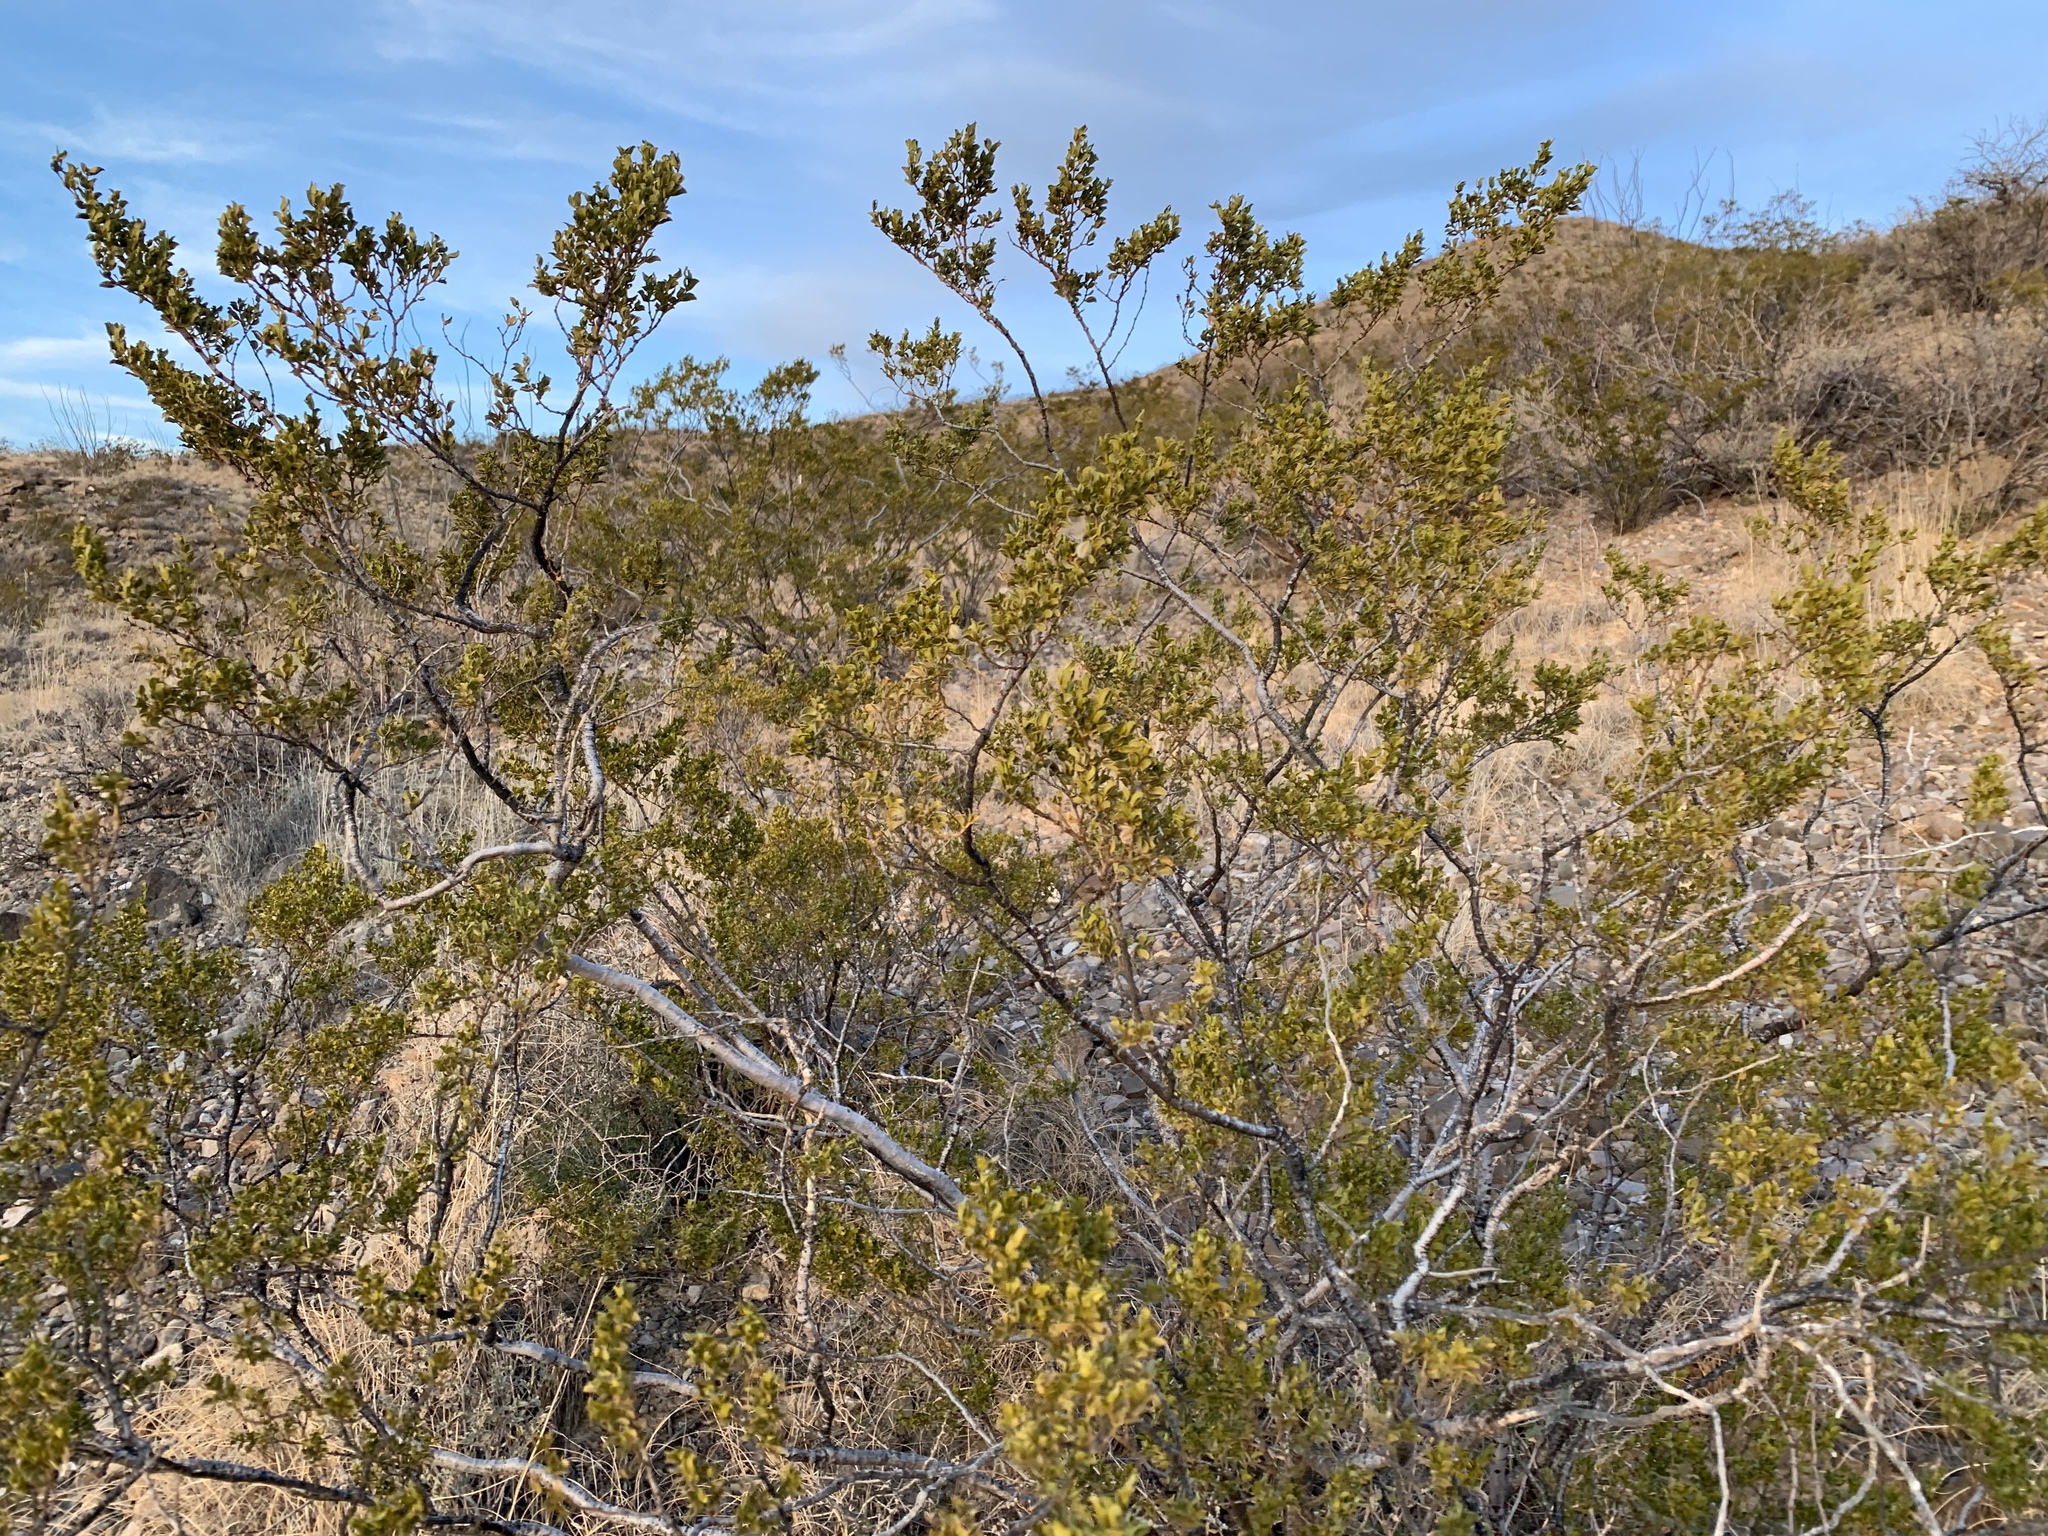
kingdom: Plantae
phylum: Tracheophyta
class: Magnoliopsida
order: Zygophyllales
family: Zygophyllaceae
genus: Larrea
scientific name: Larrea tridentata
